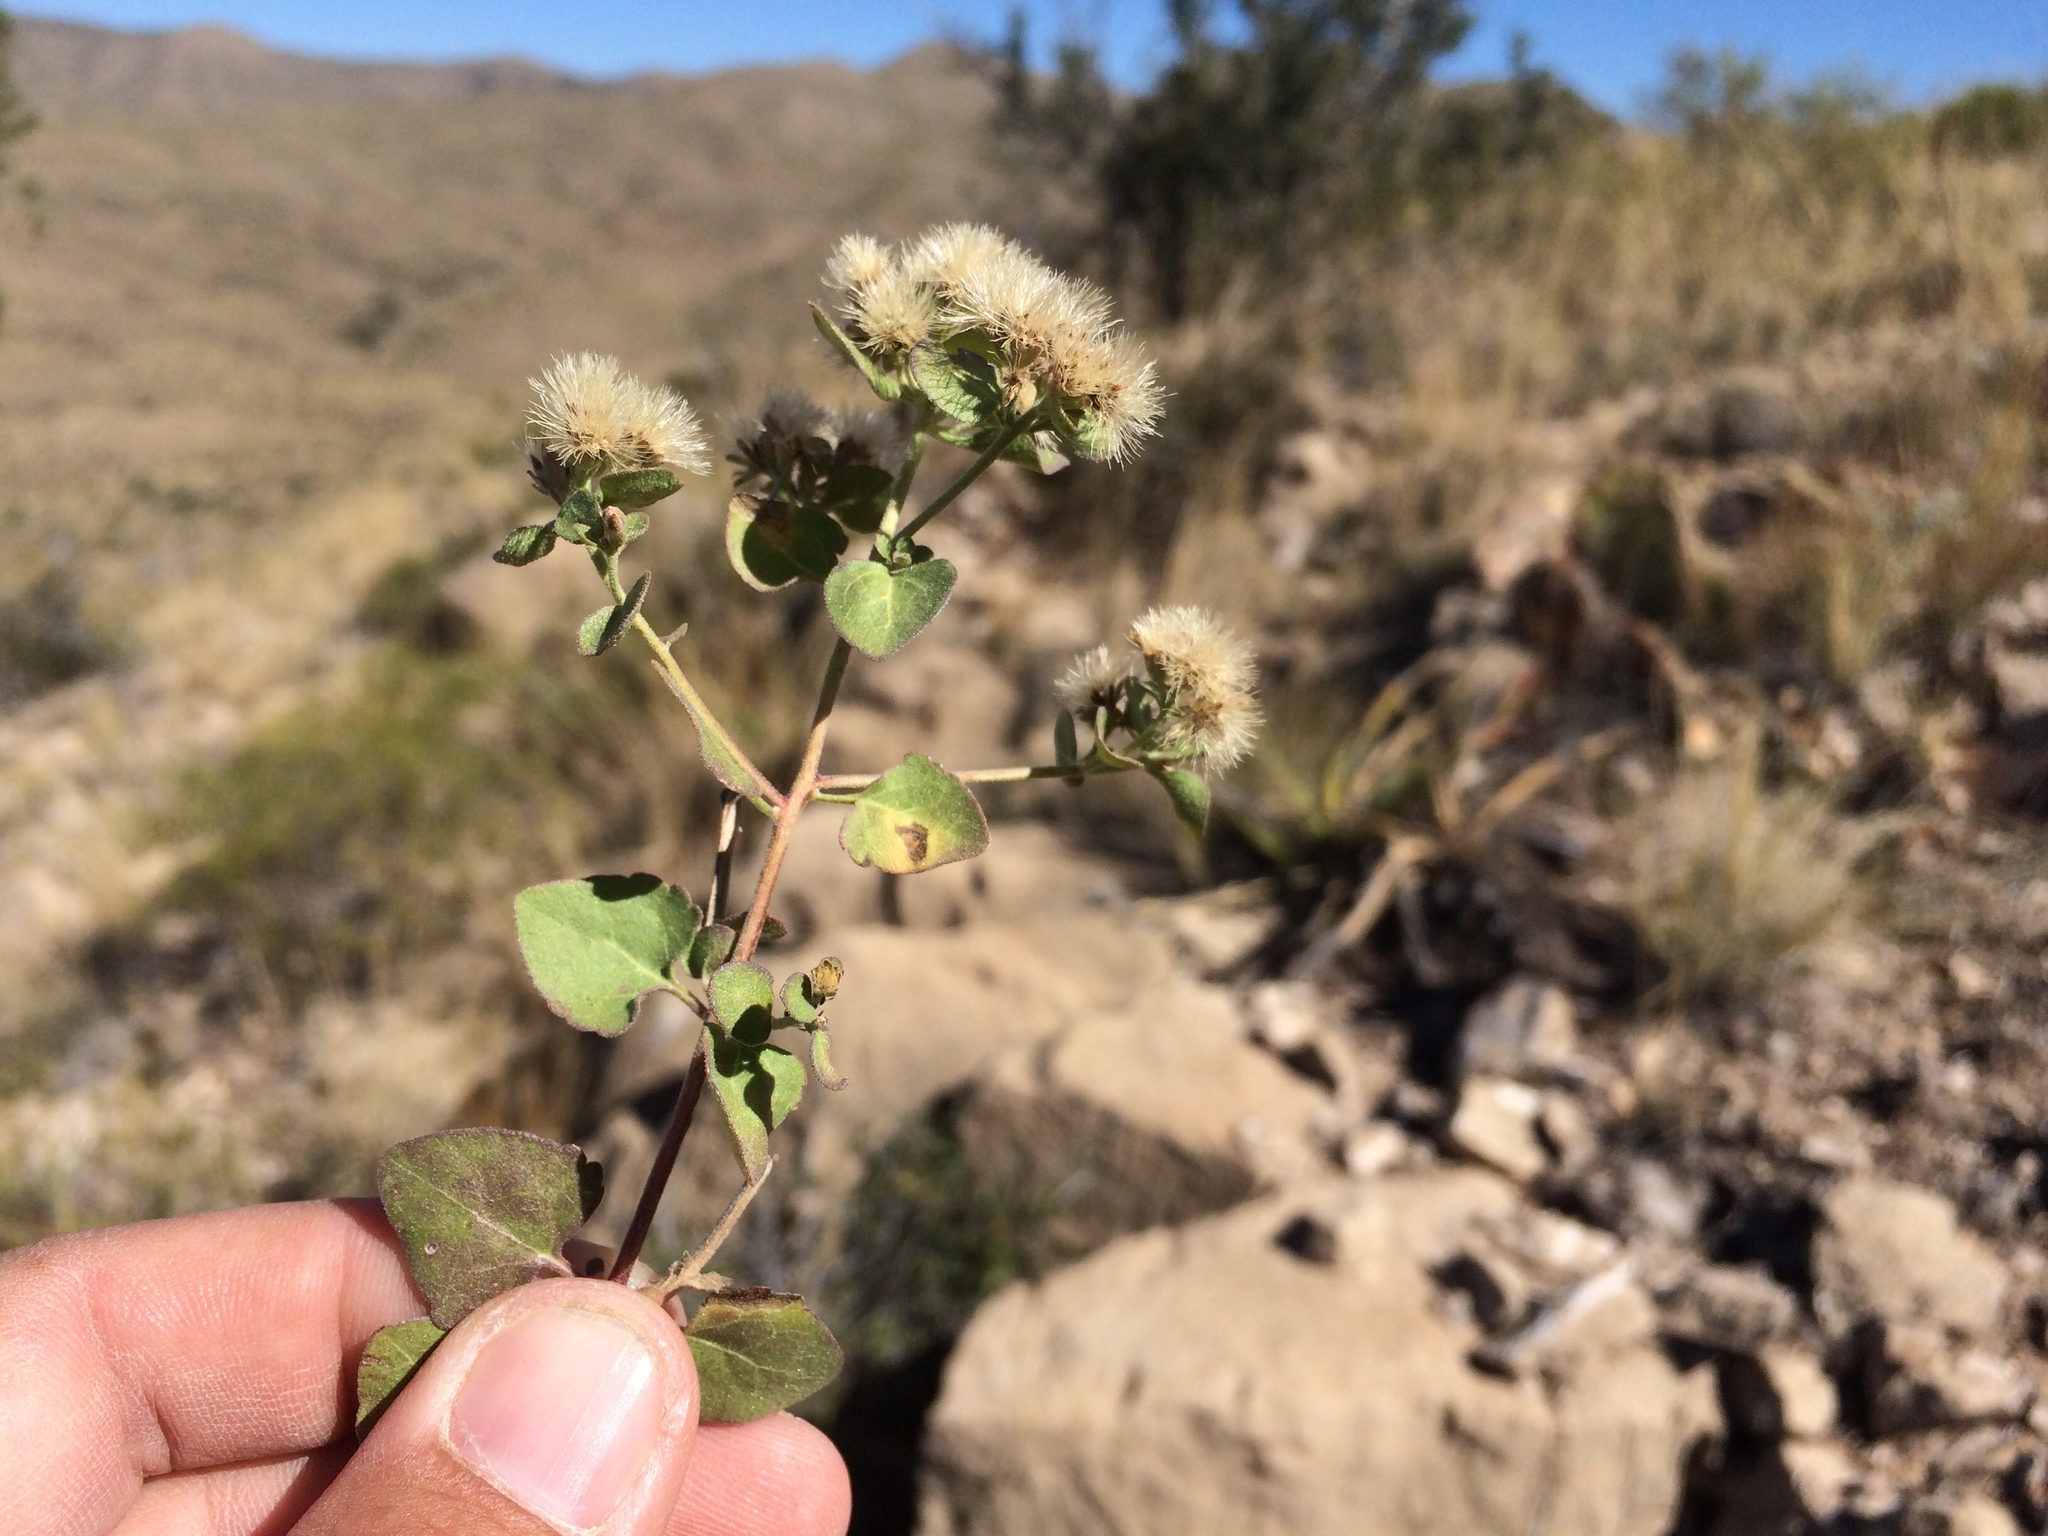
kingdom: Plantae
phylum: Tracheophyta
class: Magnoliopsida
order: Asterales
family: Asteraceae
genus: Ageratina
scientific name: Ageratina wrightii
